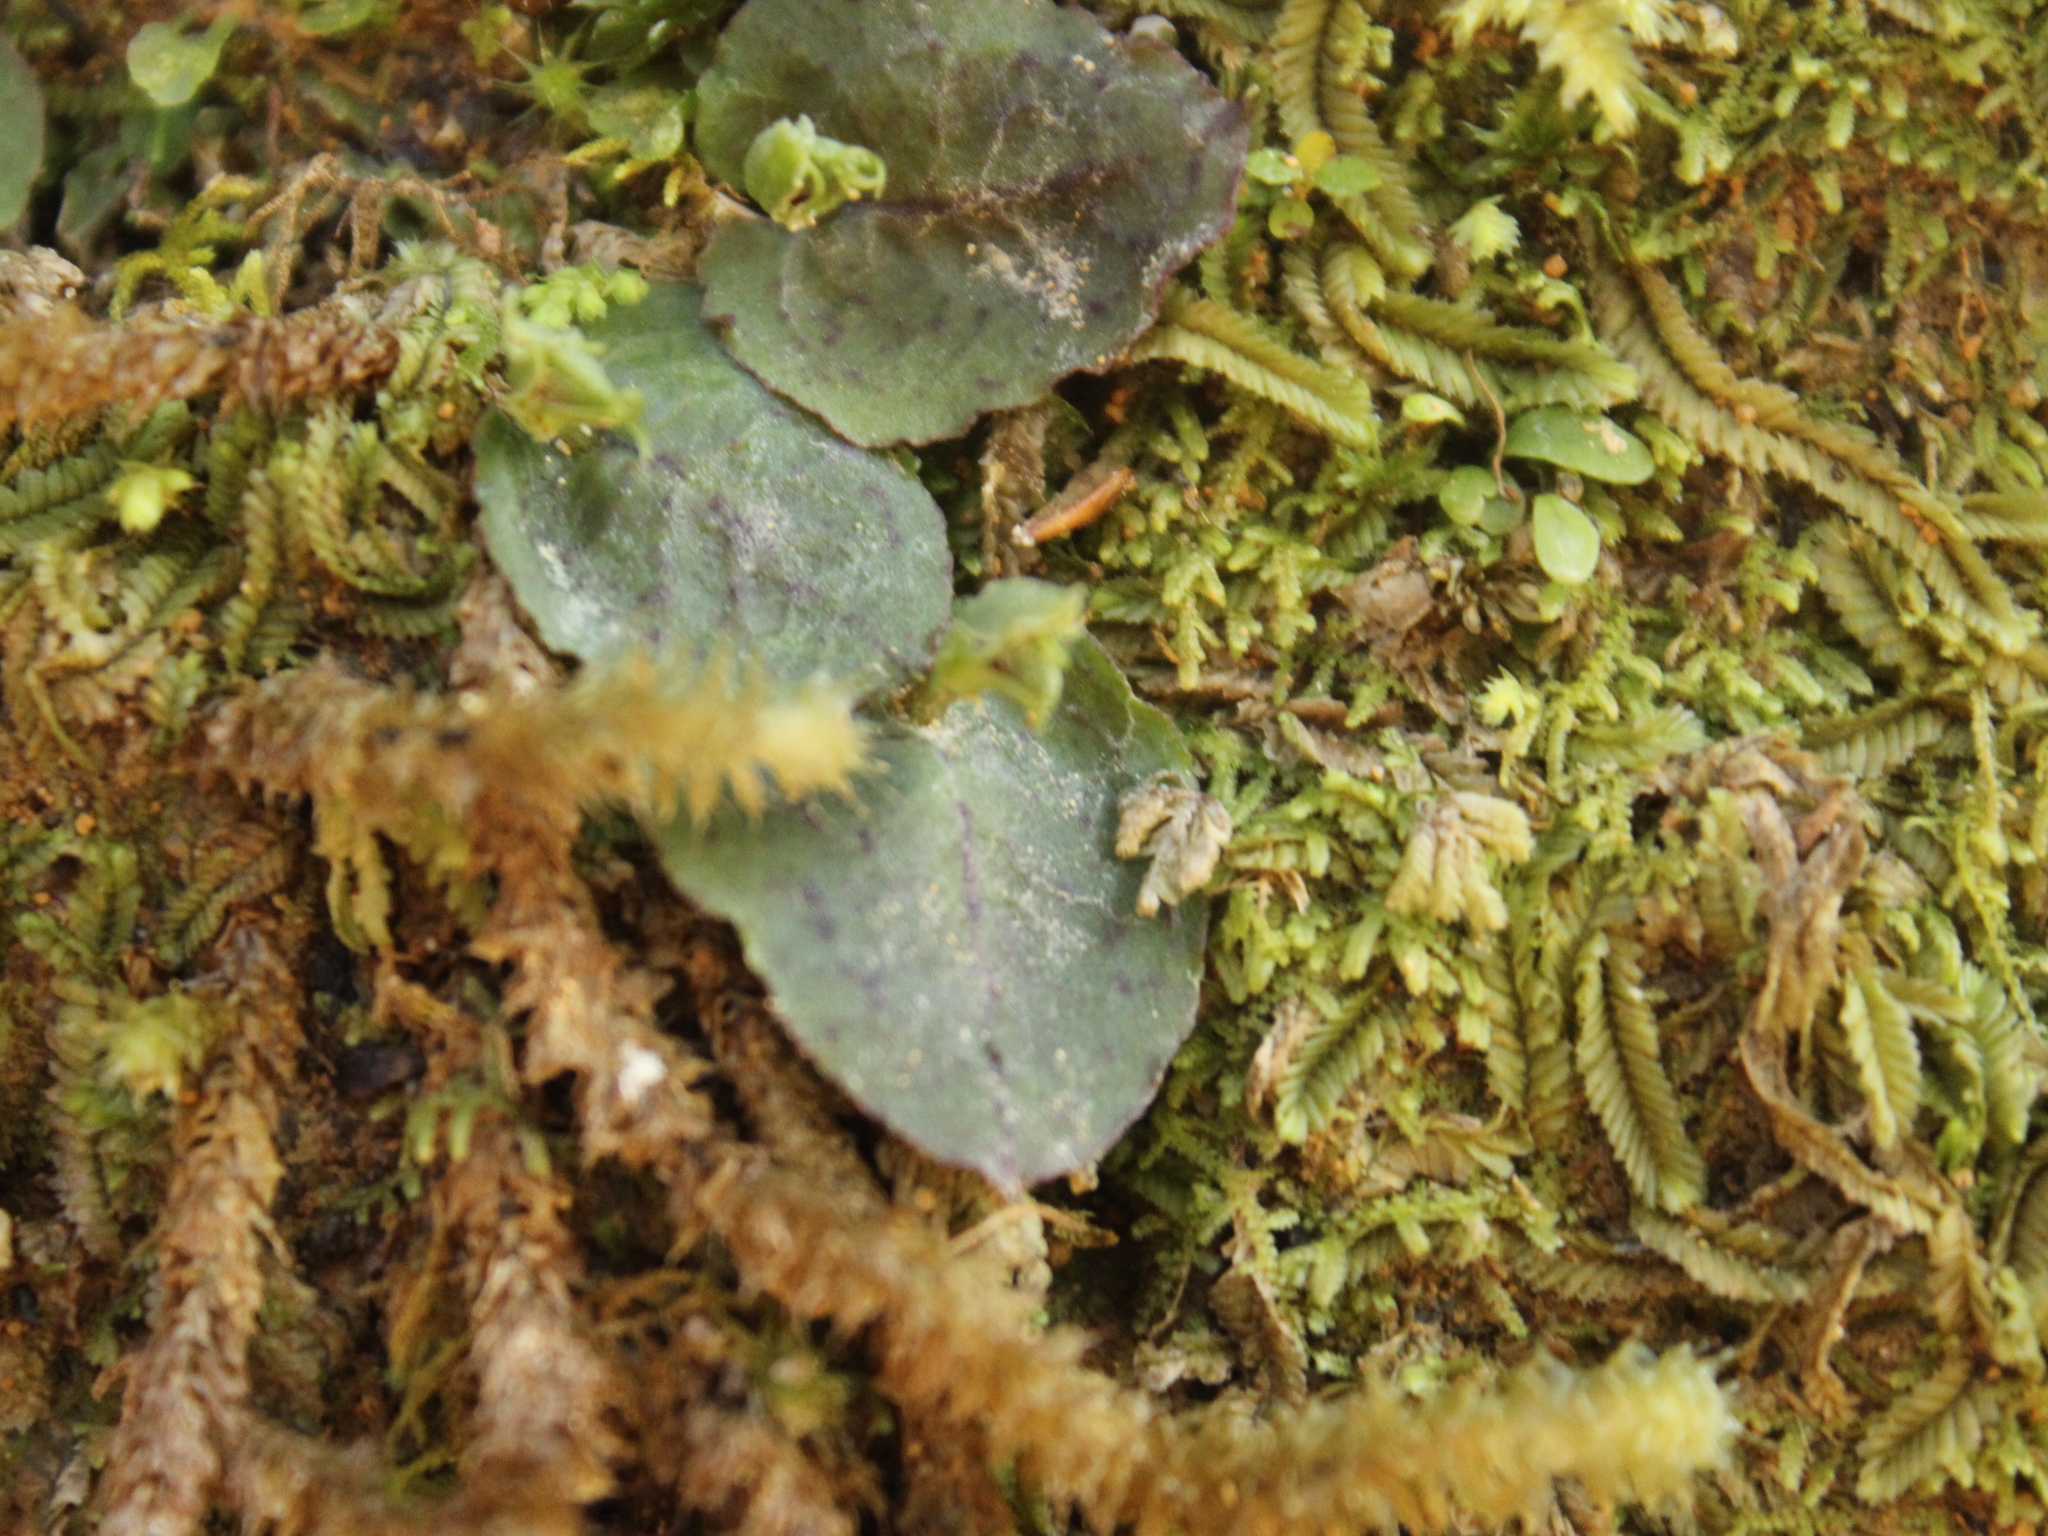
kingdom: Plantae
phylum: Tracheophyta
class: Liliopsida
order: Asparagales
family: Orchidaceae
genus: Corybas
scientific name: Corybas oblongus
